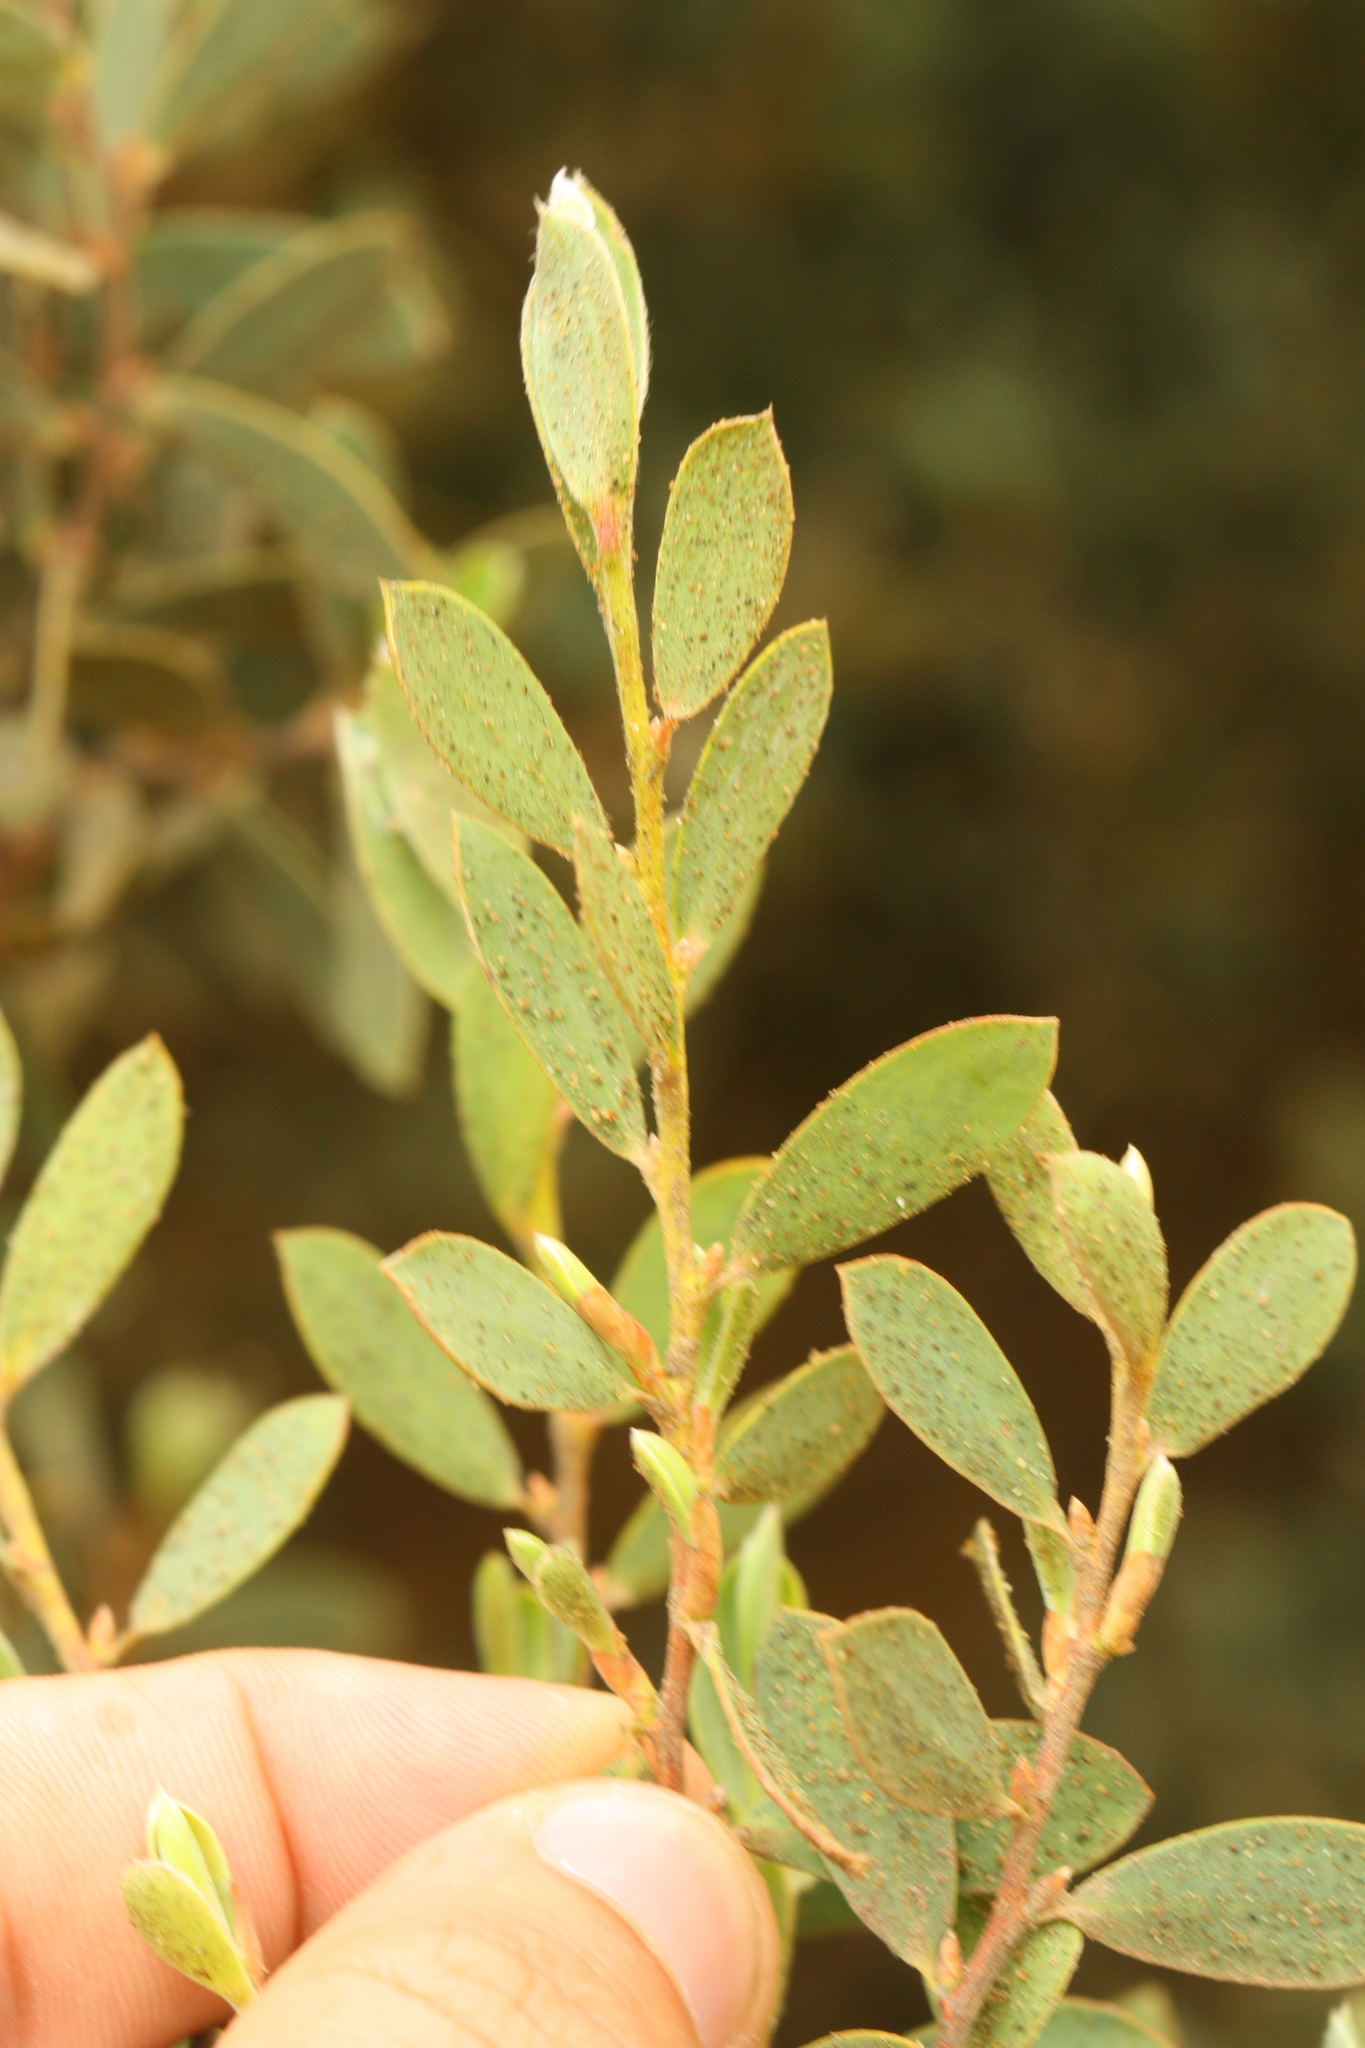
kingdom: Plantae
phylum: Tracheophyta
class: Magnoliopsida
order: Myrtales
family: Myrtaceae
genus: Leptospermum
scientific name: Leptospermum laevigatum
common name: Australian teatree
